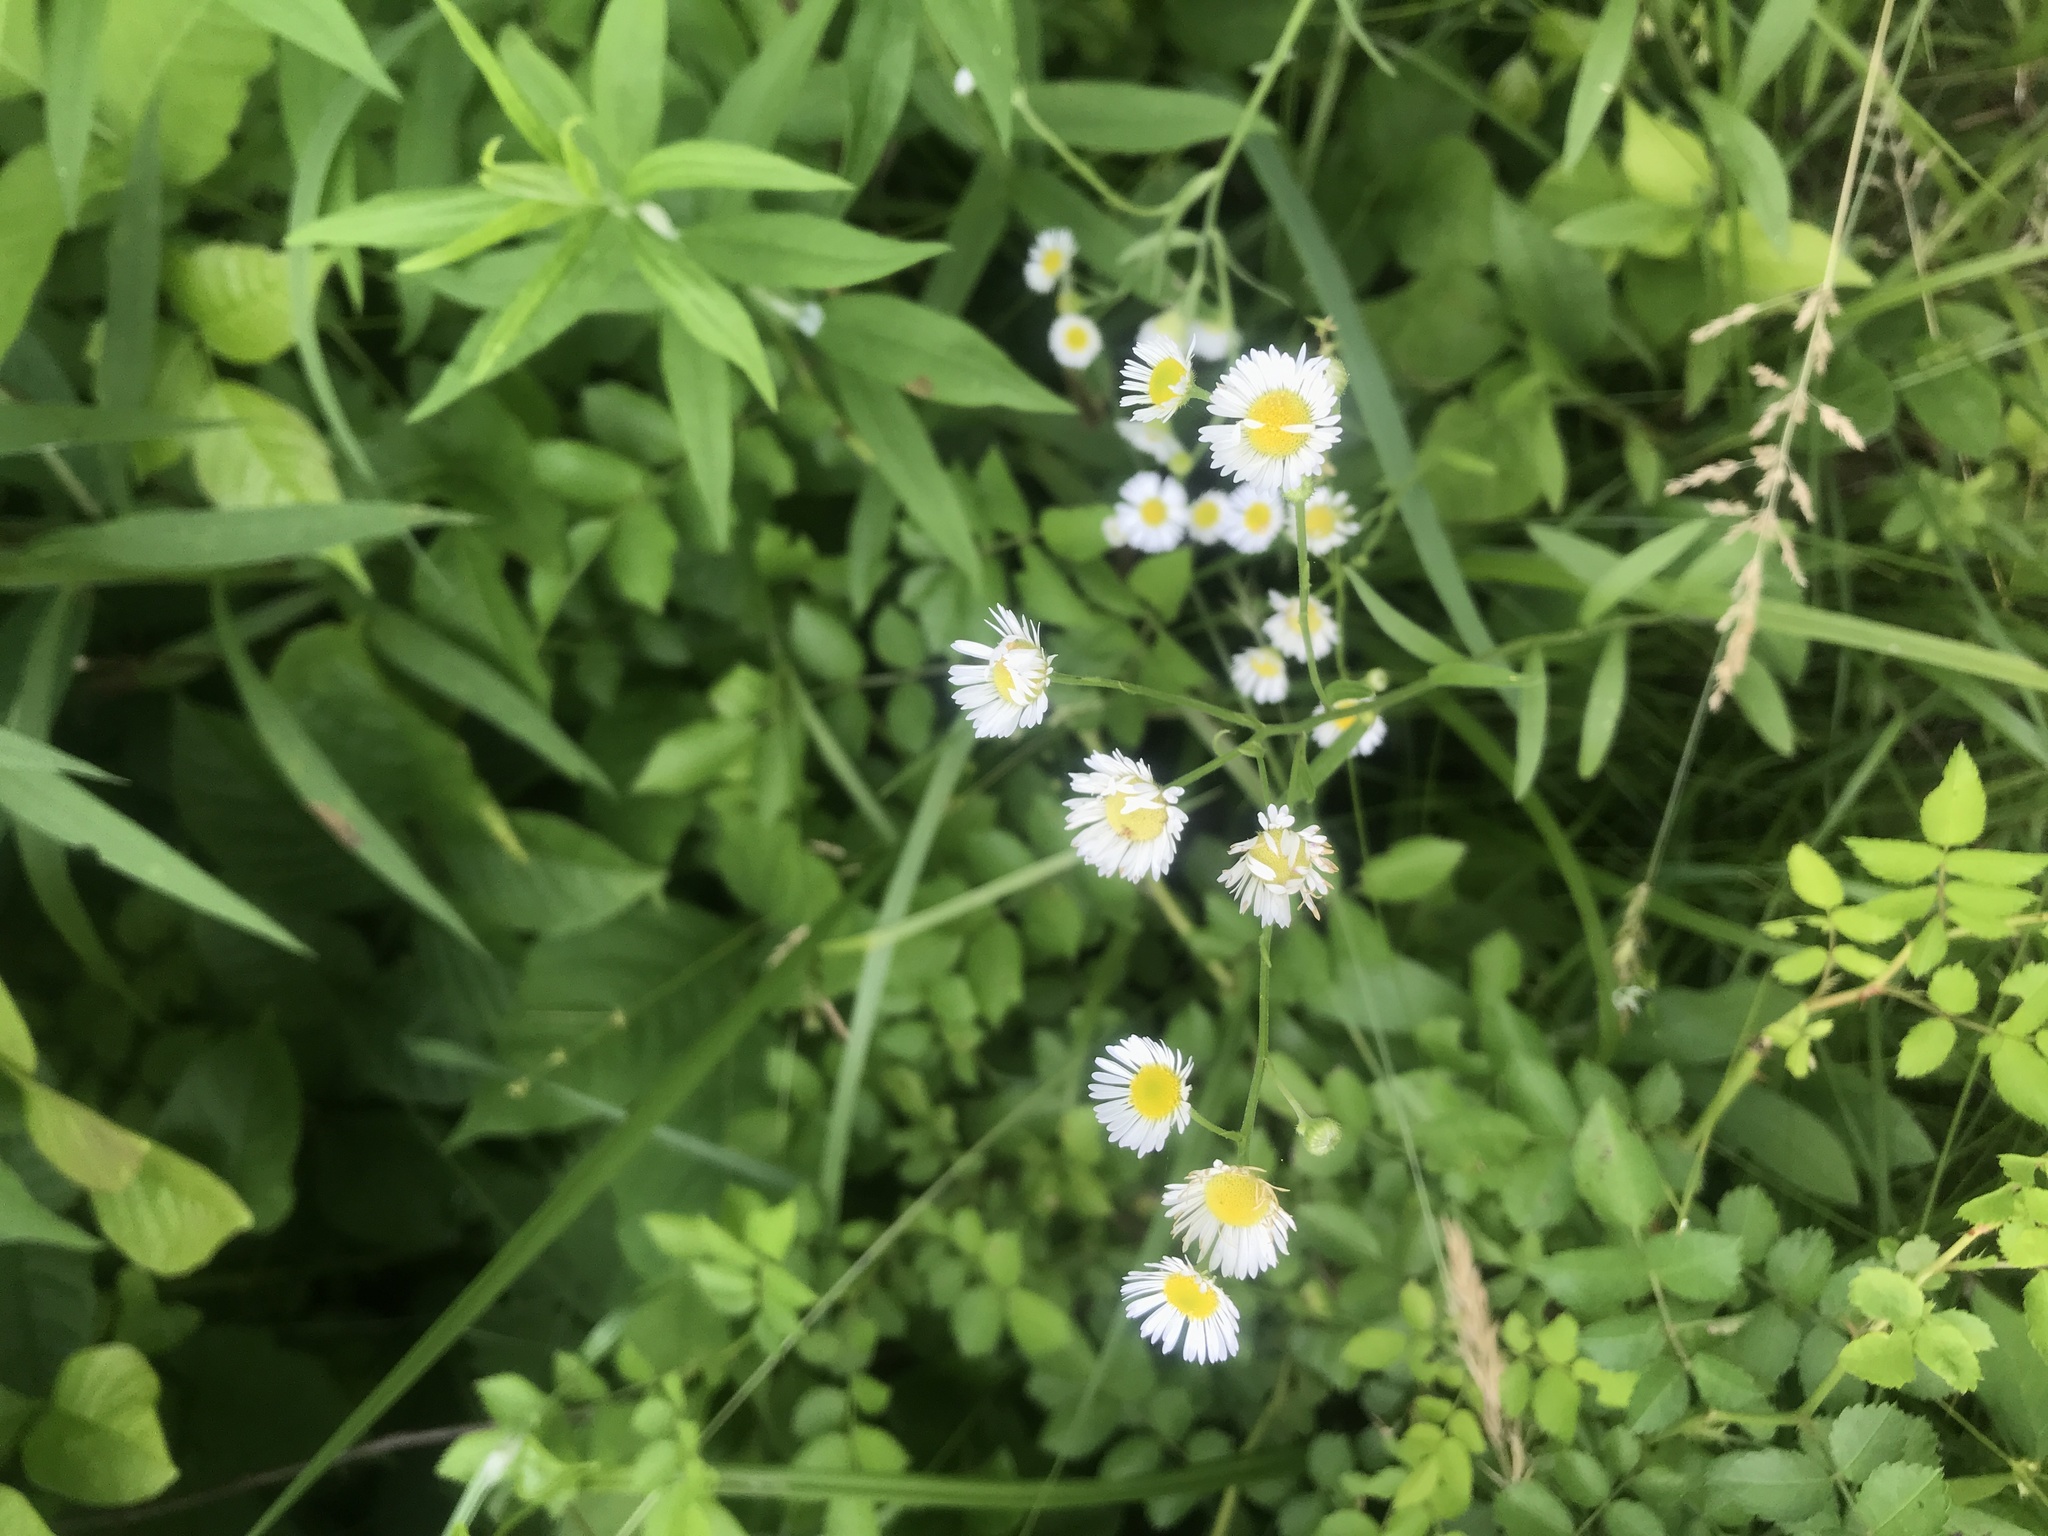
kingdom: Plantae
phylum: Tracheophyta
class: Magnoliopsida
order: Asterales
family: Asteraceae
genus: Erigeron
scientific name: Erigeron strigosus
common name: Common eastern fleabane
